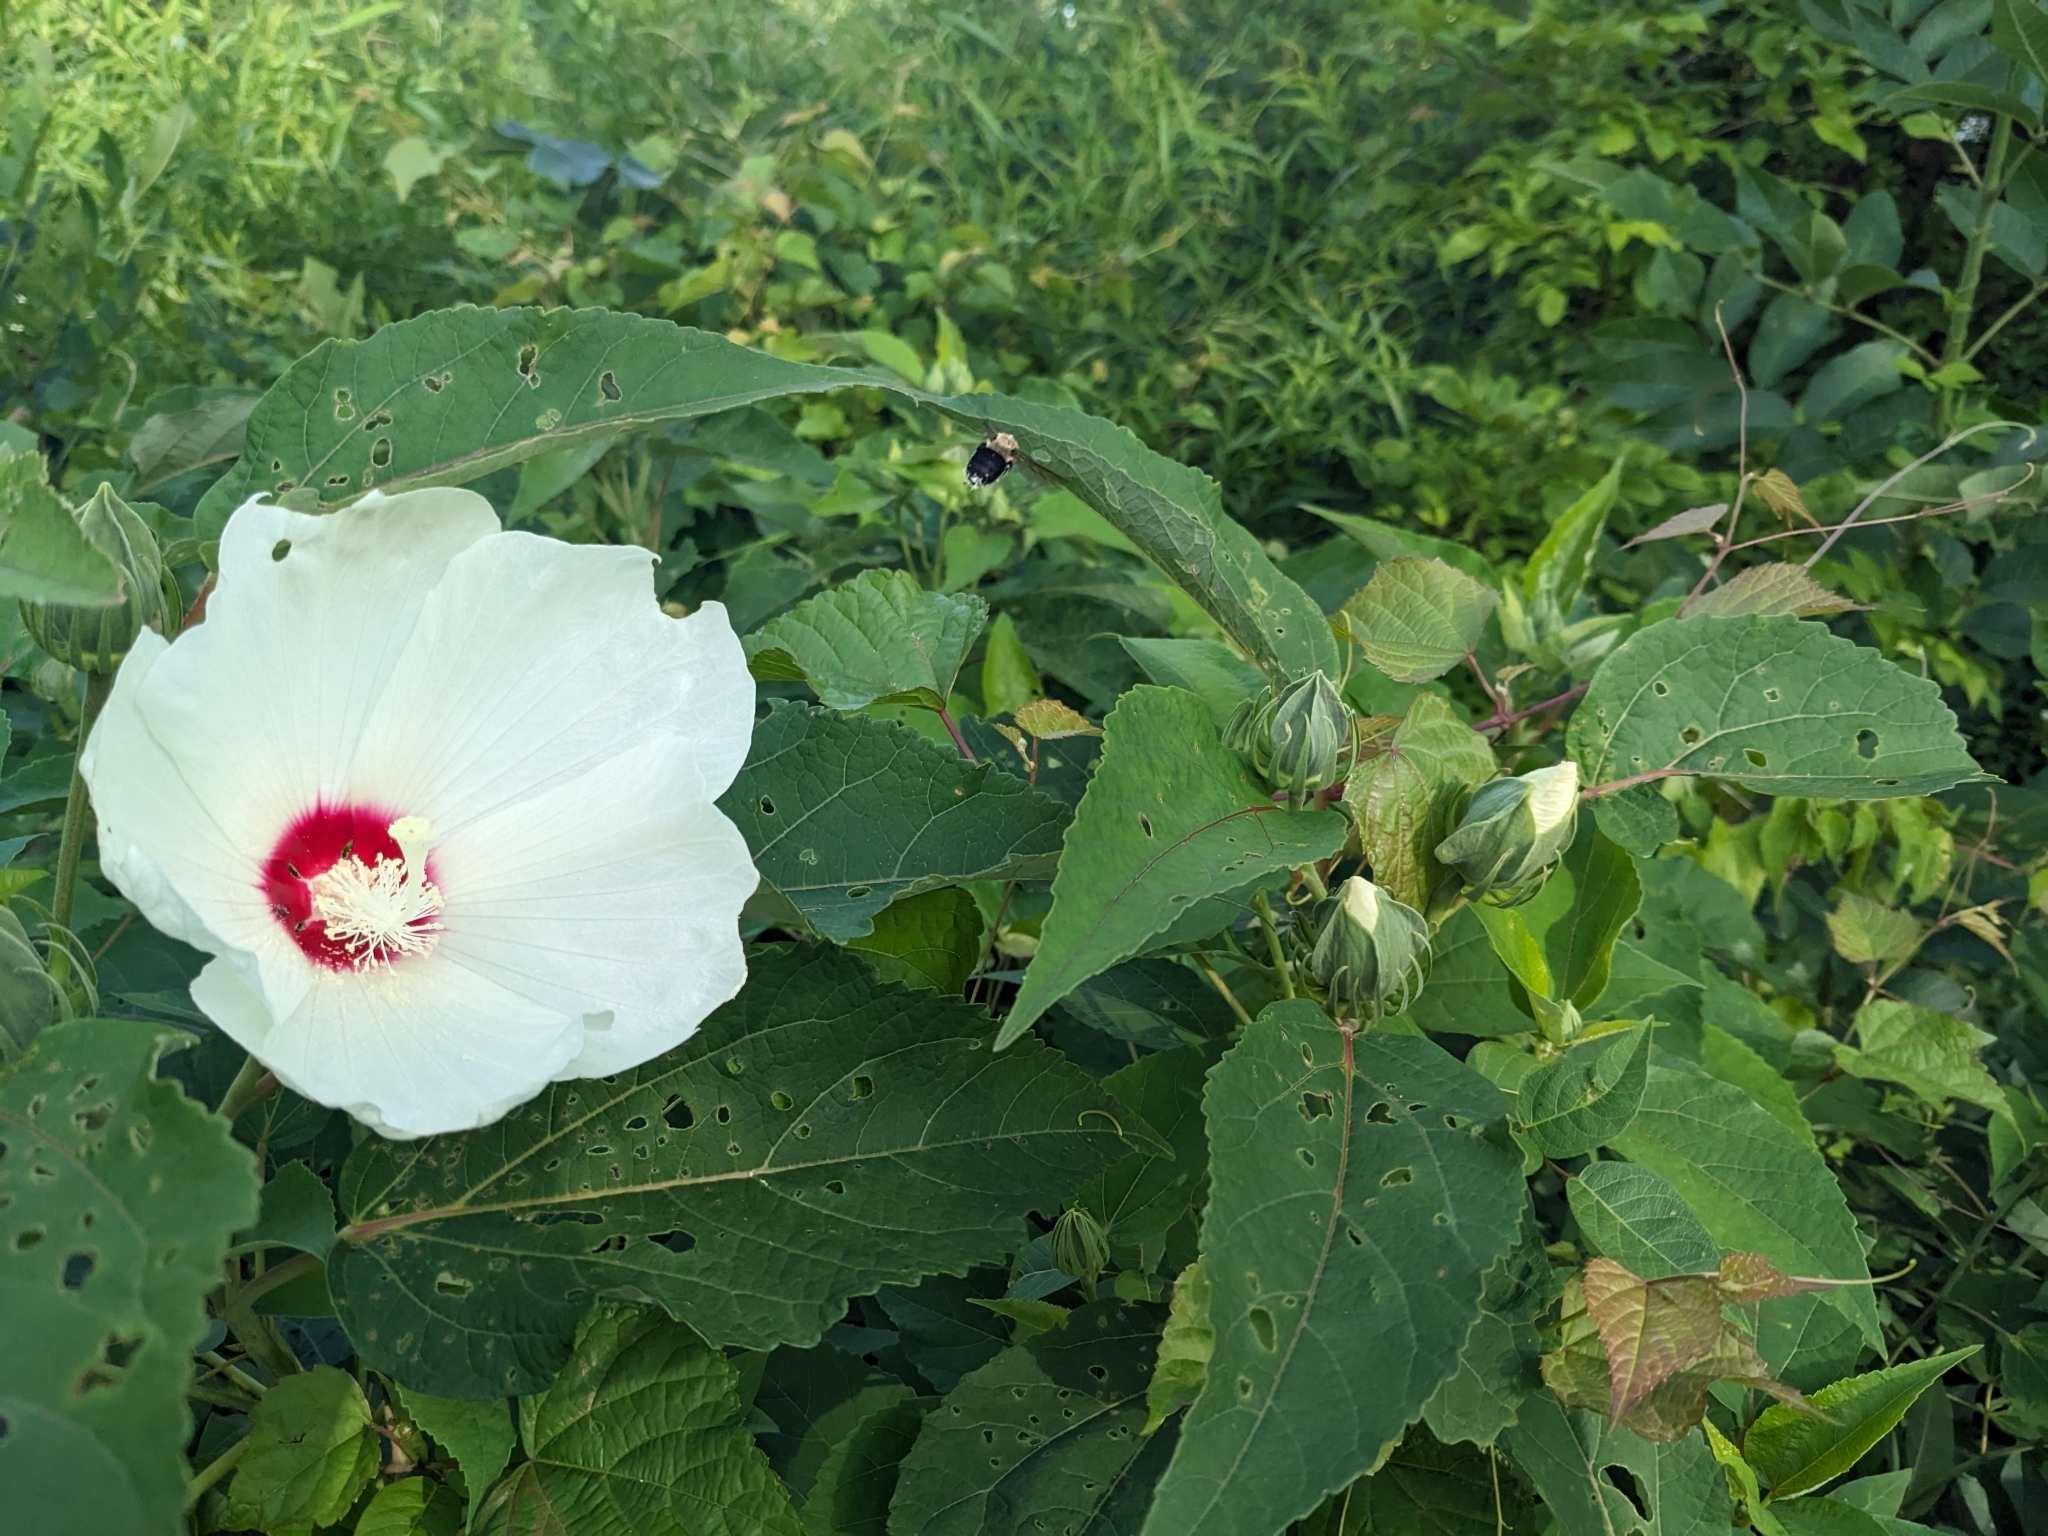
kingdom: Plantae
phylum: Tracheophyta
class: Magnoliopsida
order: Malvales
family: Malvaceae
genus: Hibiscus
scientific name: Hibiscus moscheutos
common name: Common rose-mallow
